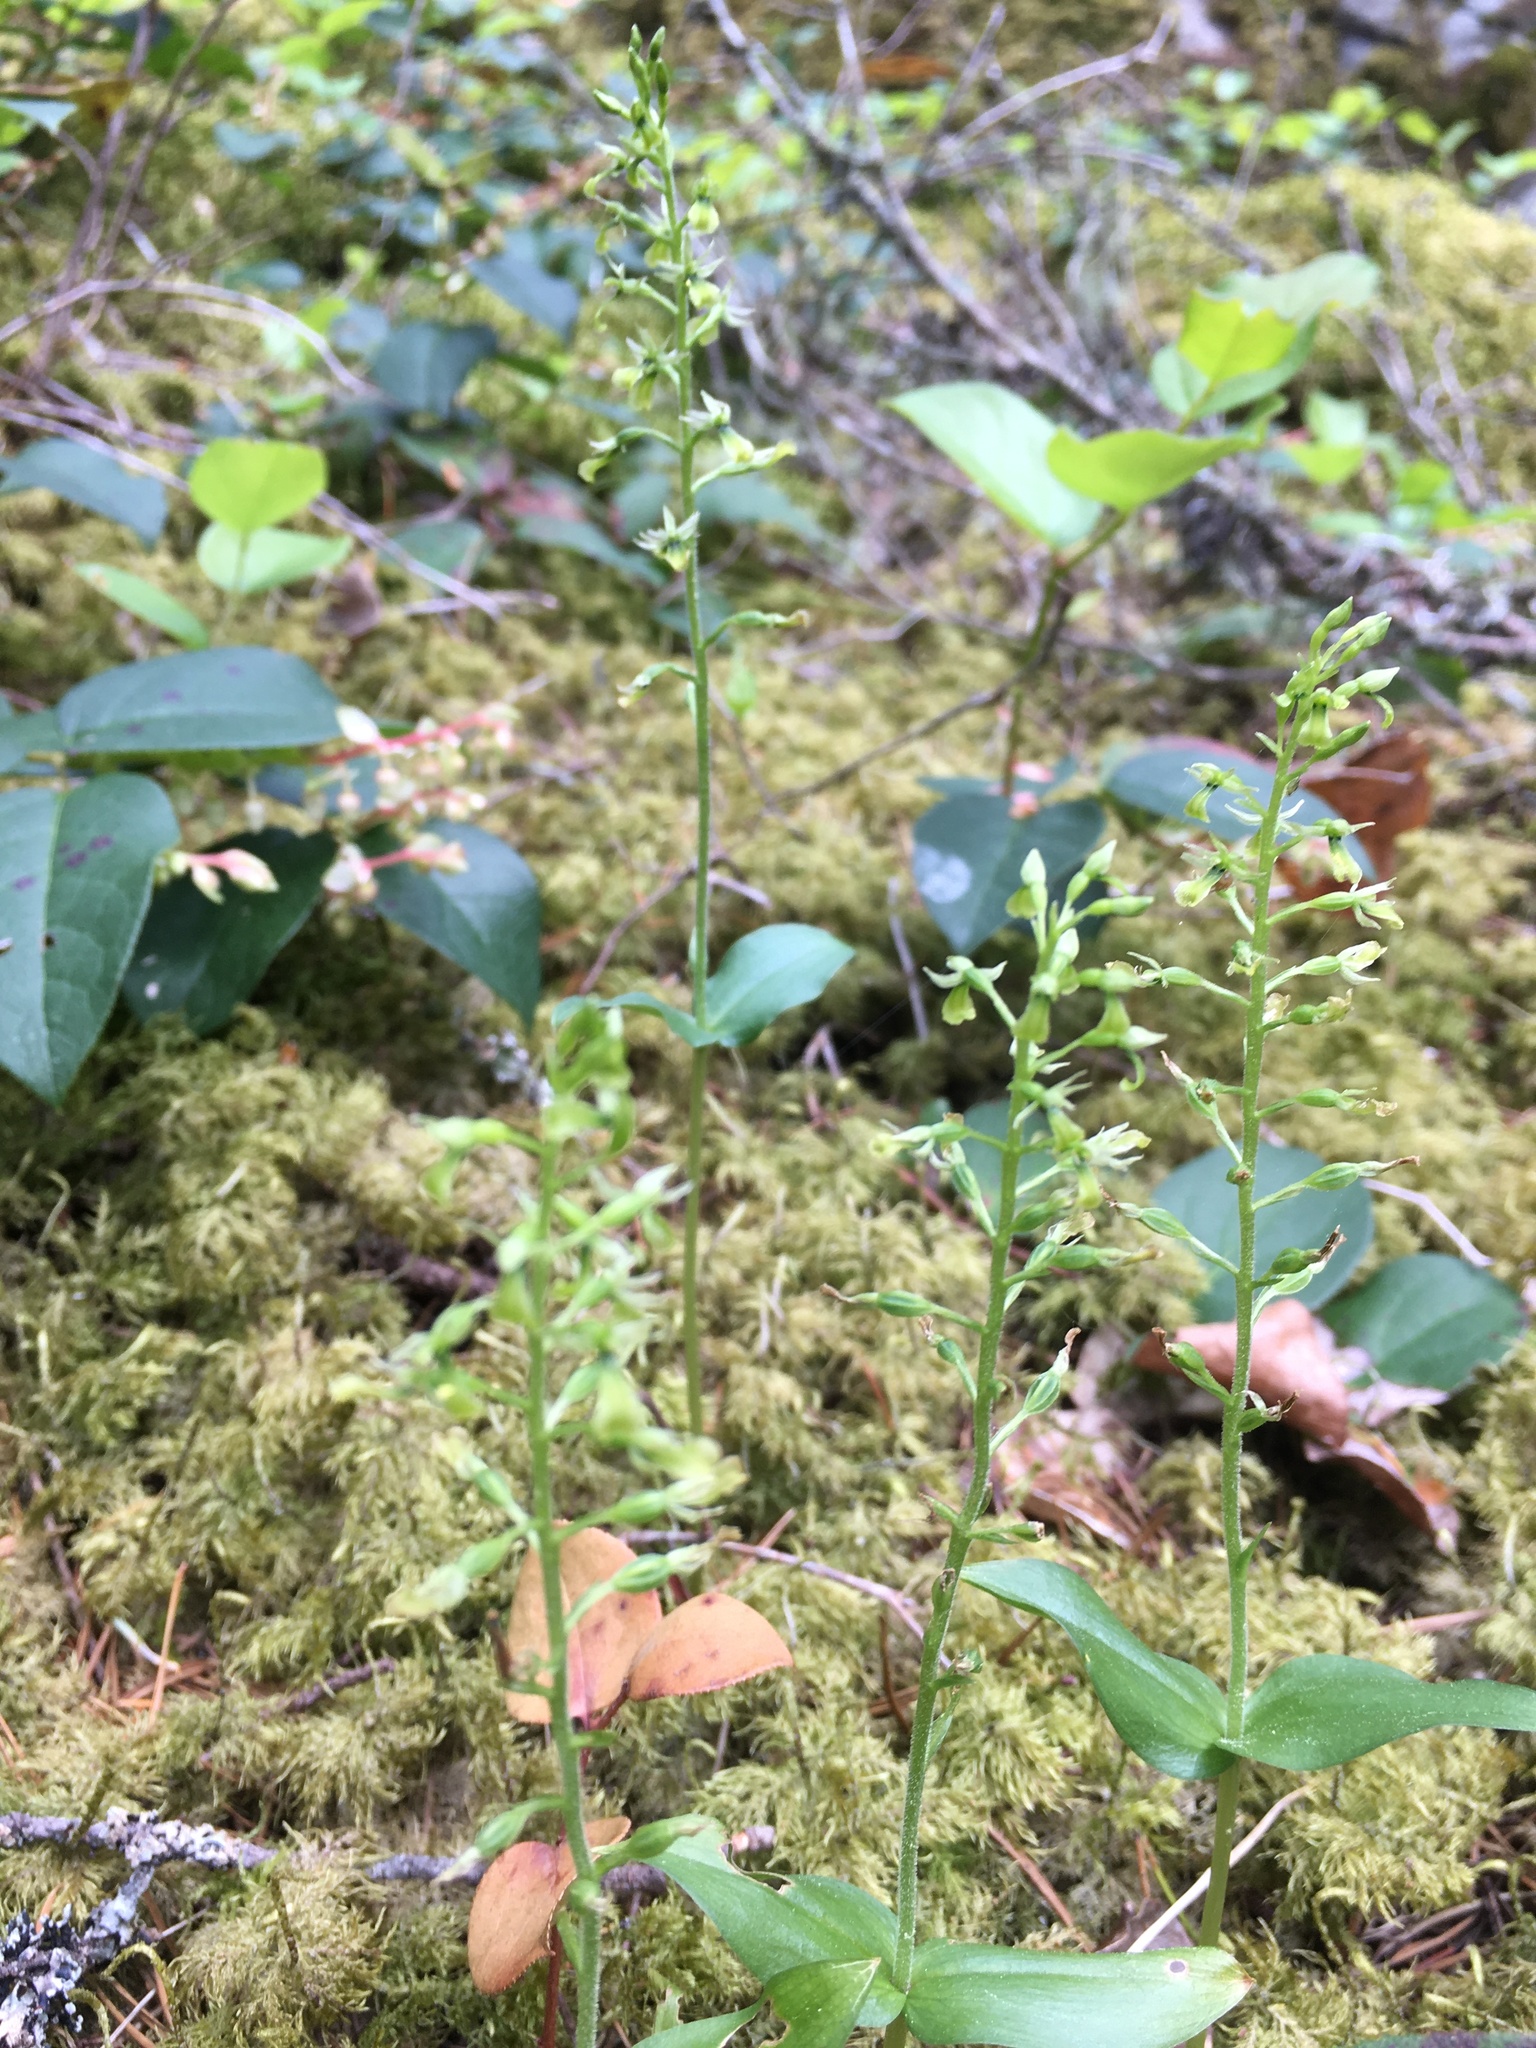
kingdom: Plantae
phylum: Tracheophyta
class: Liliopsida
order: Asparagales
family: Orchidaceae
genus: Neottia
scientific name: Neottia banksiana
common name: Northwestern twayblade
